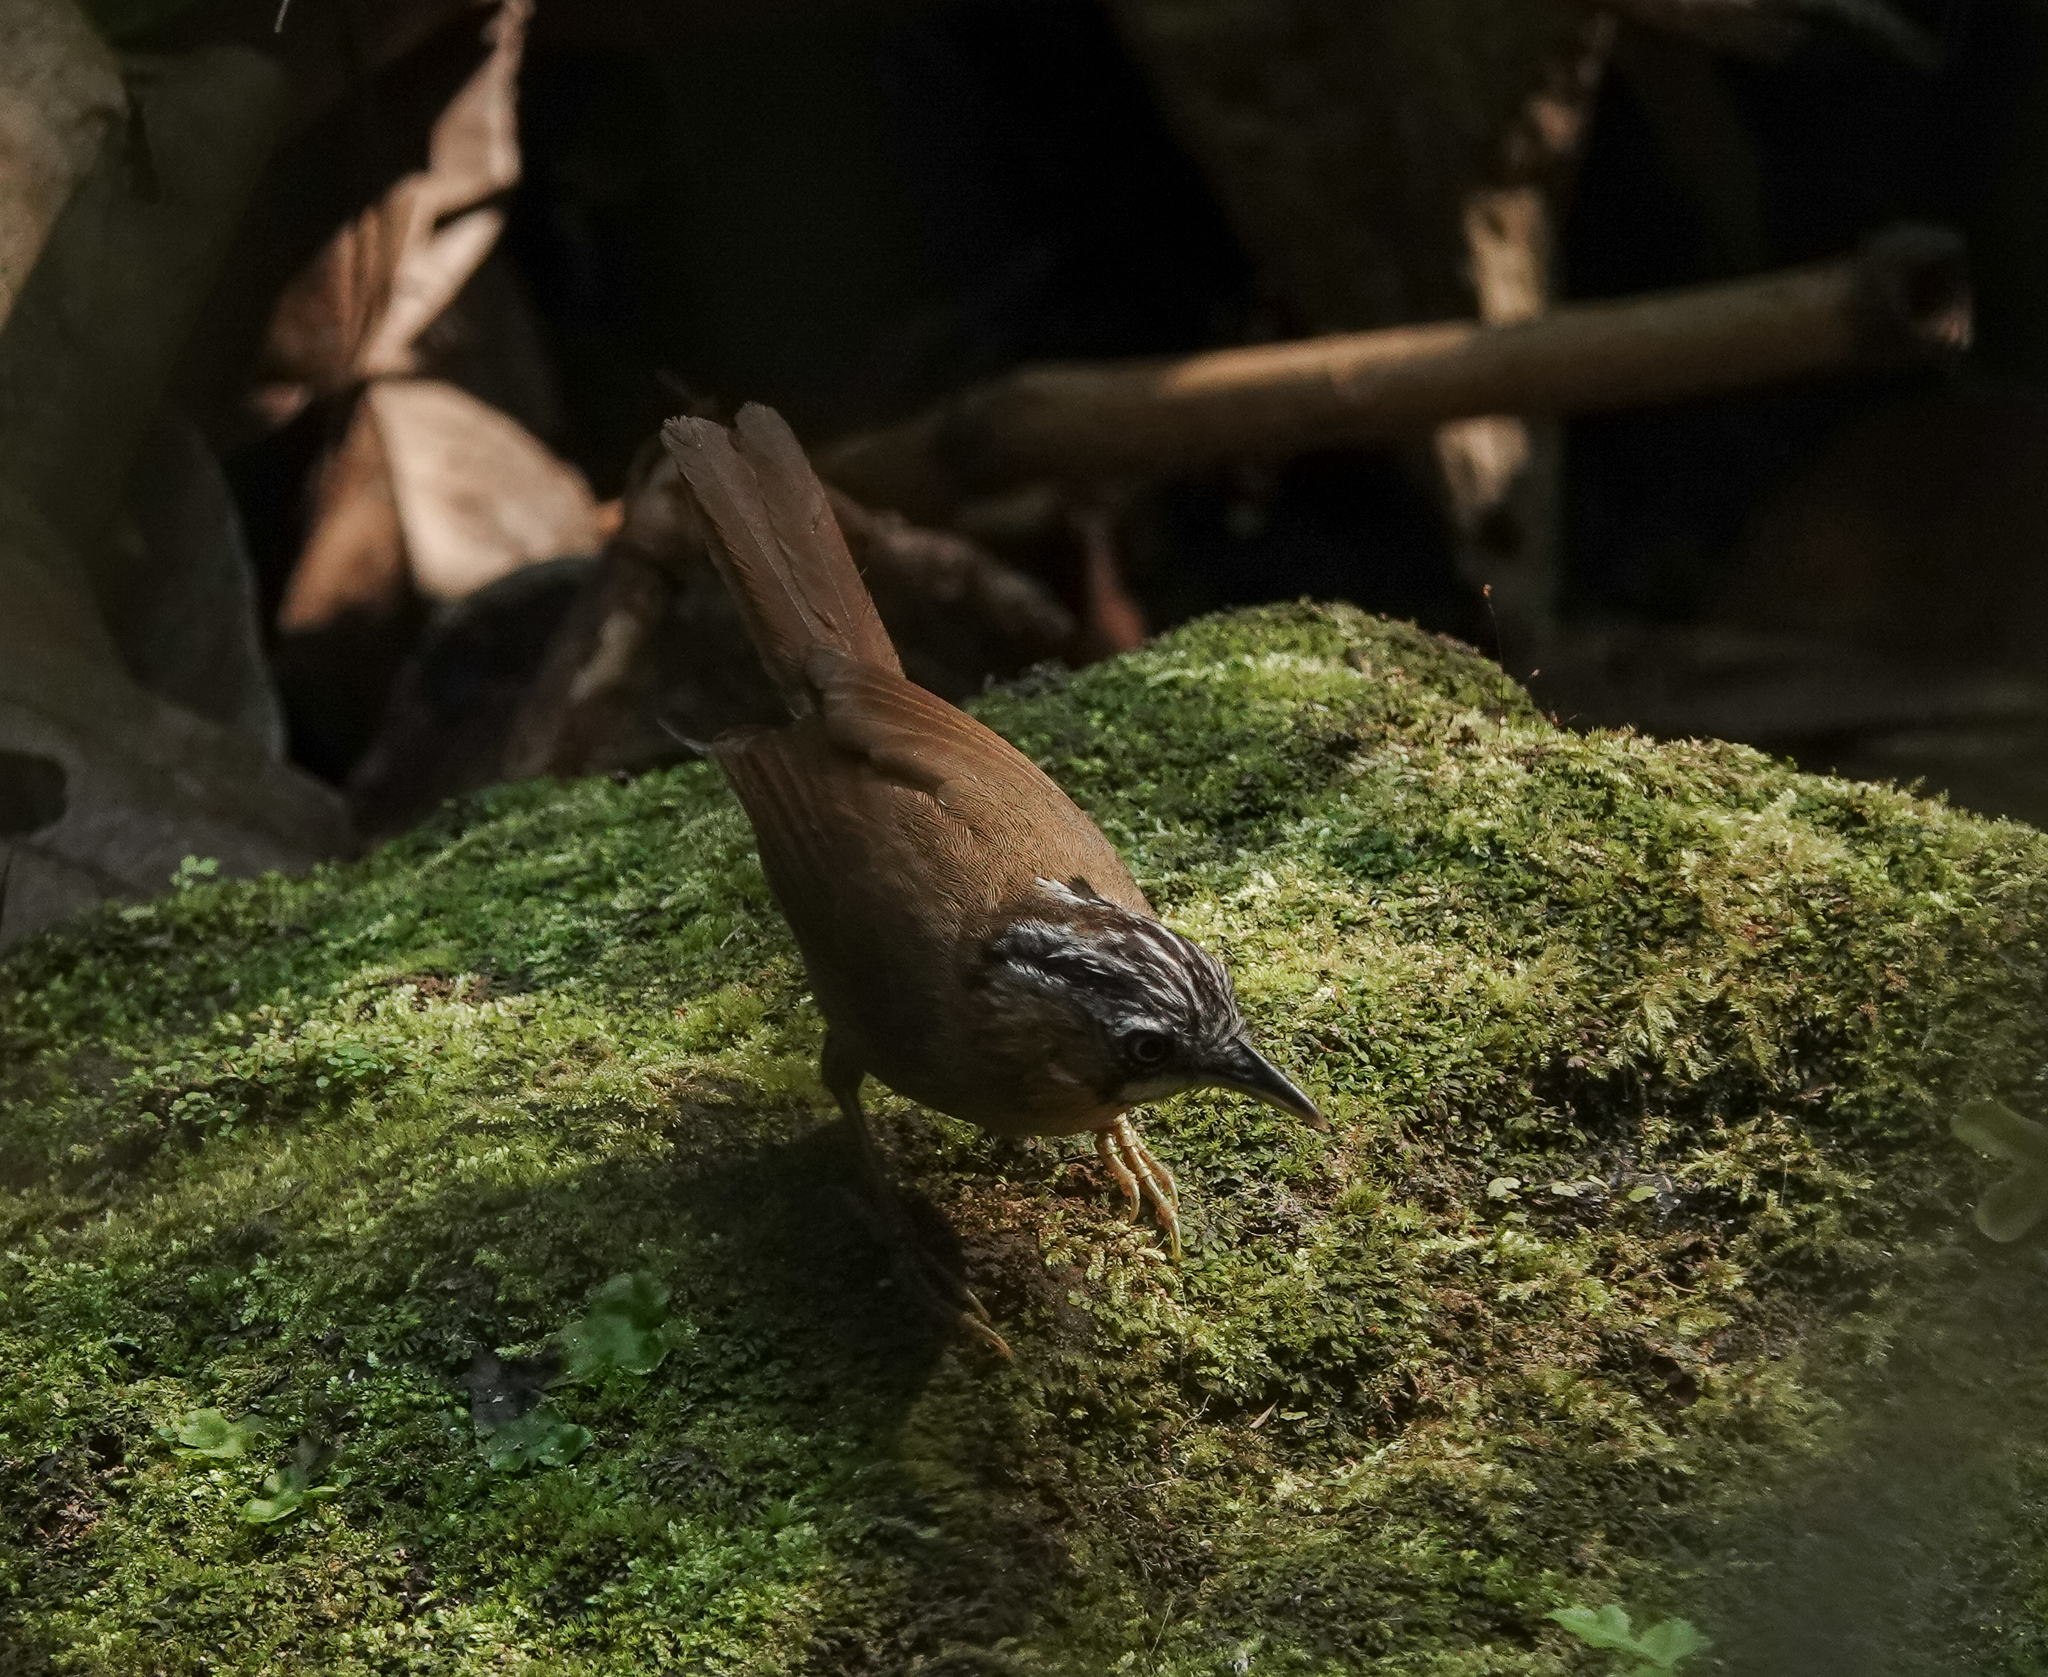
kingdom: Animalia
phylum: Chordata
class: Aves
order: Passeriformes
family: Timaliidae
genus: Stachyris
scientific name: Stachyris nigriceps
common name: Grey-throated babbler
